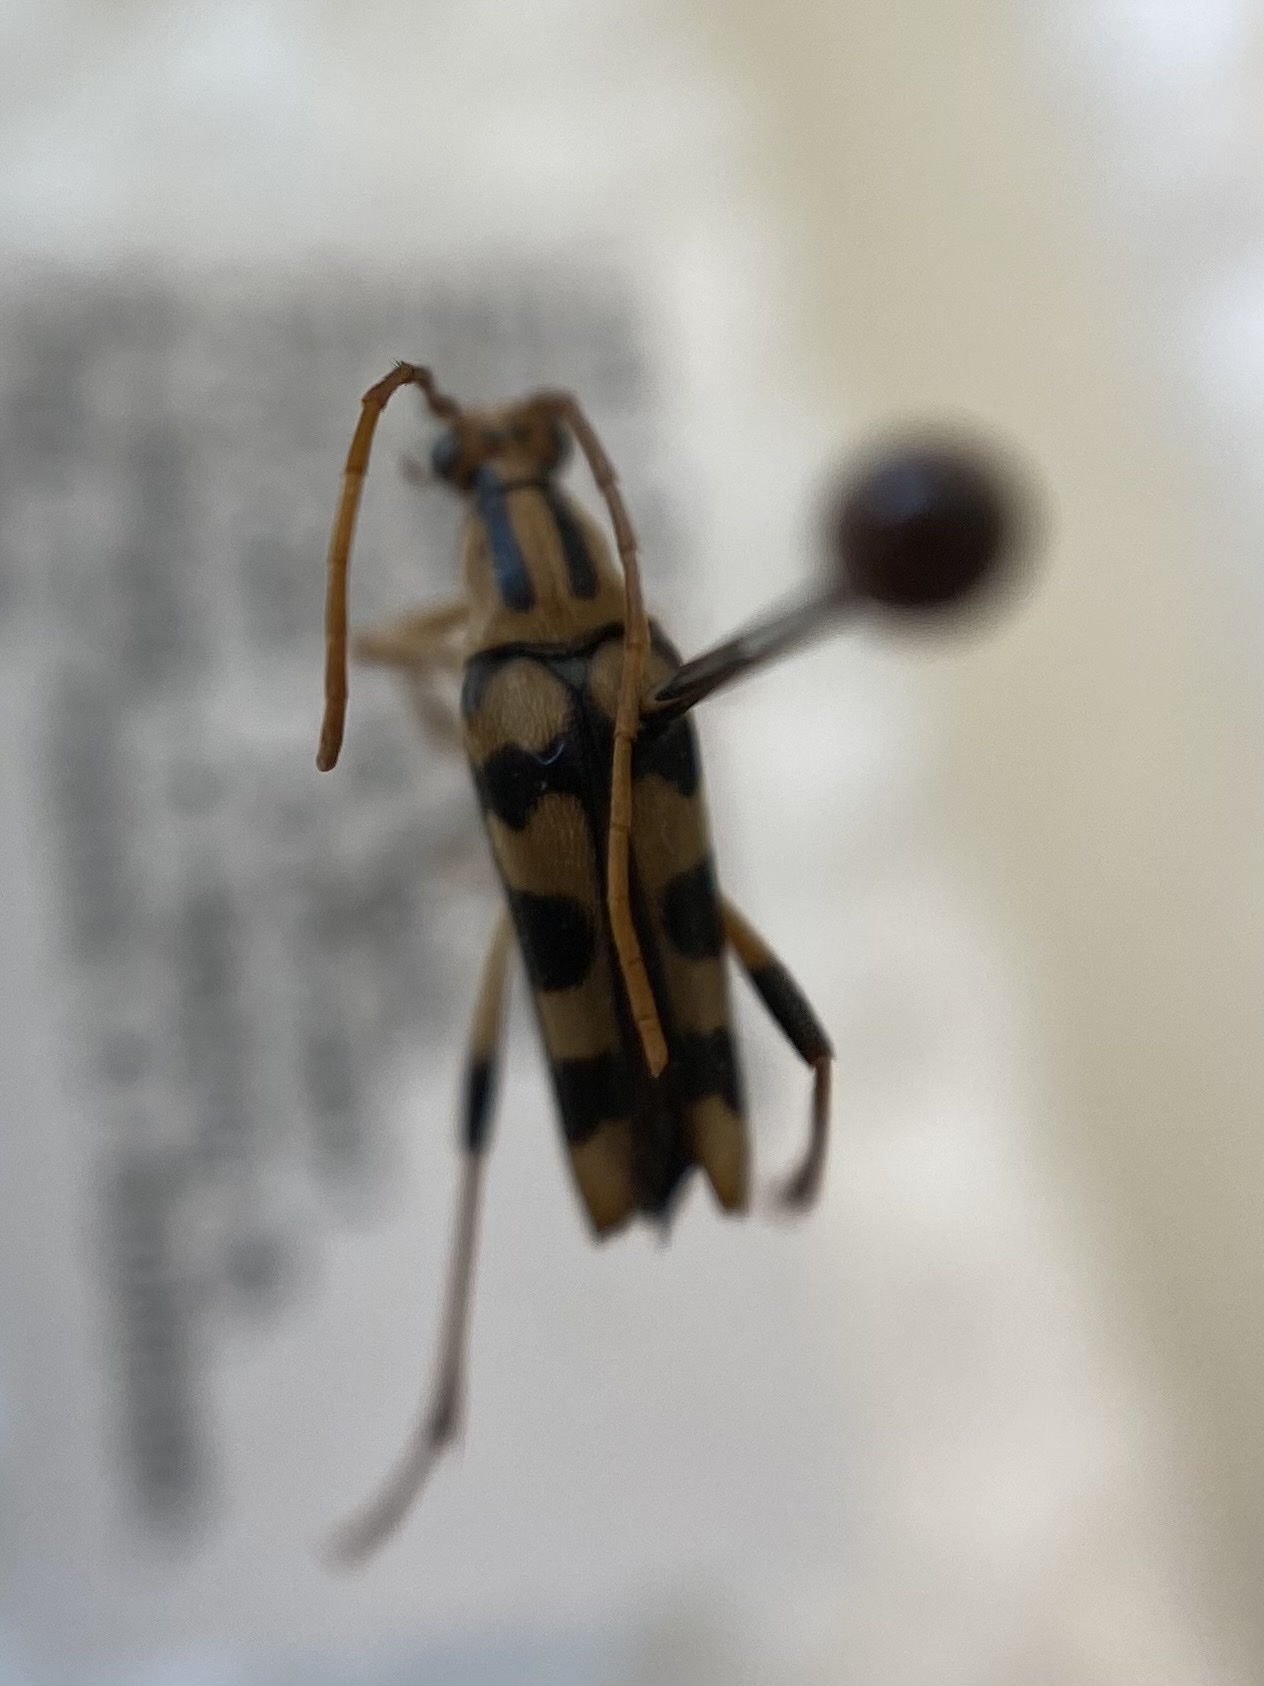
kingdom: Animalia
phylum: Arthropoda
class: Insecta
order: Coleoptera
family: Cerambycidae
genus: Strangalia
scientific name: Strangalia luteicornis
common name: Yellow-horned flower longhorn beetle
